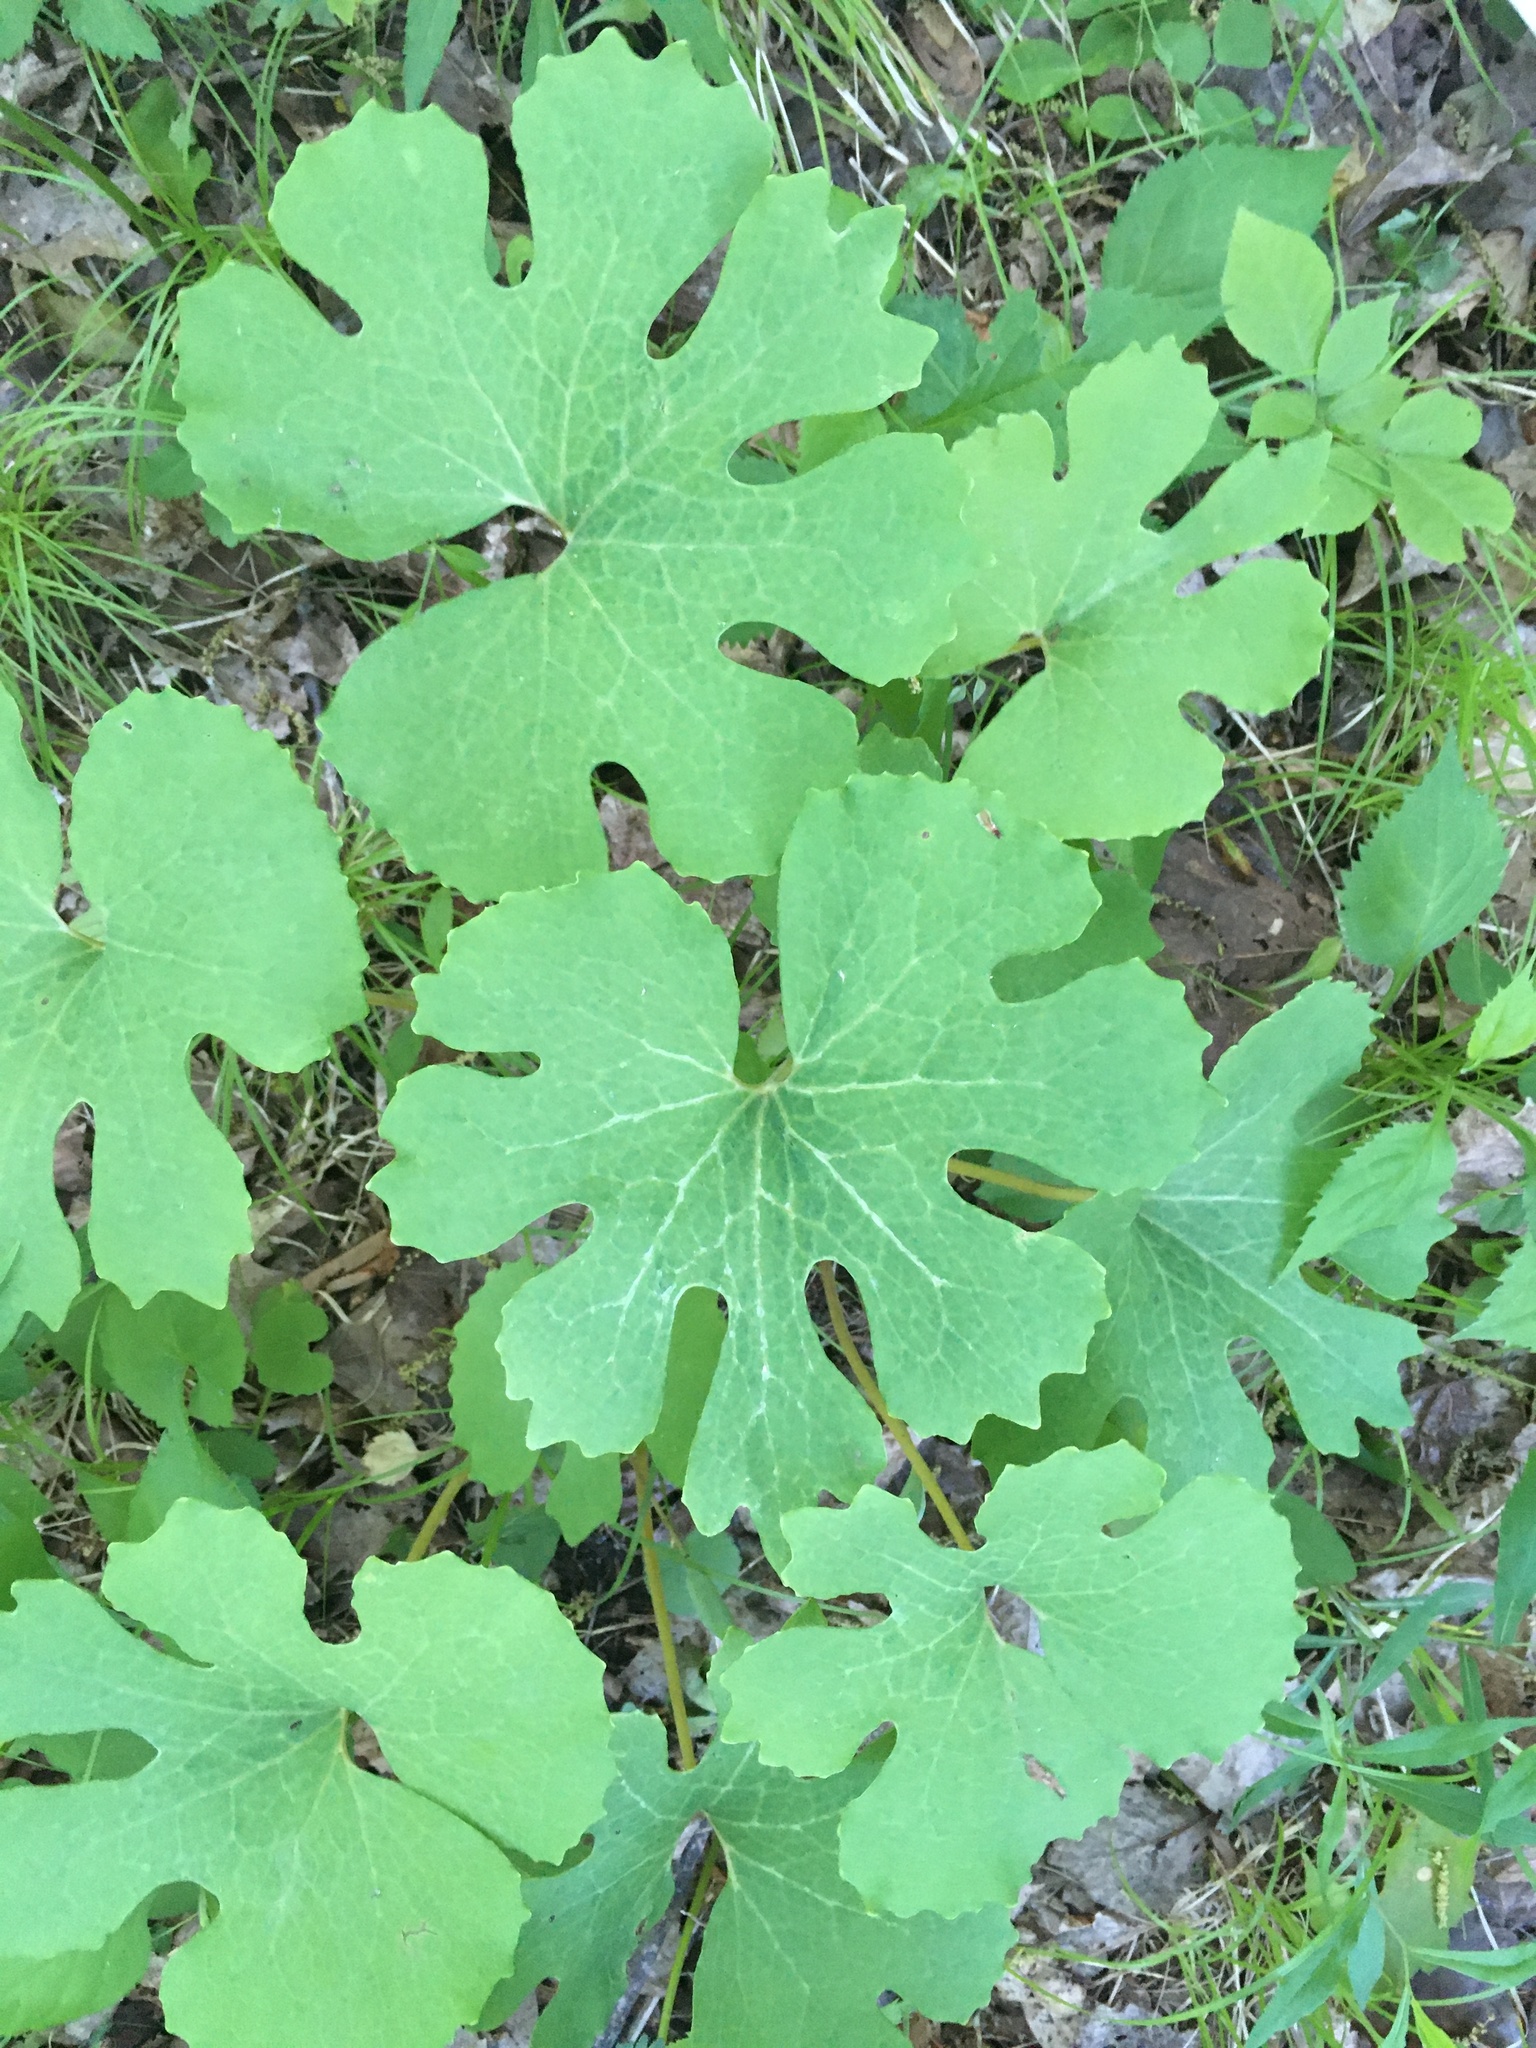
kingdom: Plantae
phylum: Tracheophyta
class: Magnoliopsida
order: Ranunculales
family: Papaveraceae
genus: Sanguinaria
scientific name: Sanguinaria canadensis
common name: Bloodroot
